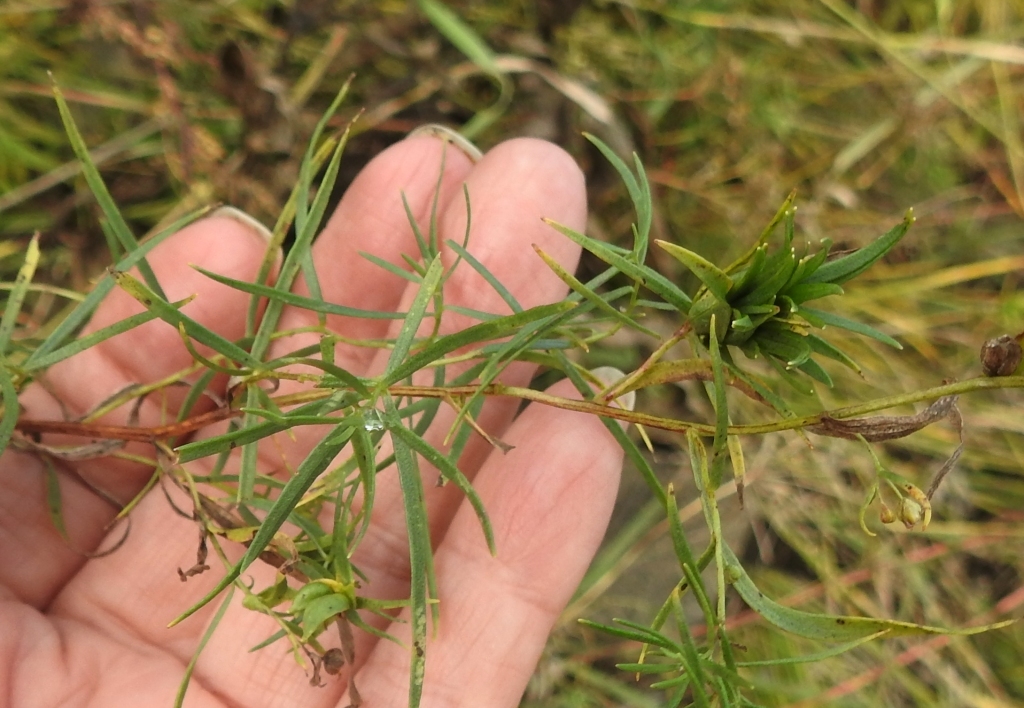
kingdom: Plantae
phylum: Tracheophyta
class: Magnoliopsida
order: Asterales
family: Asteraceae
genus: Artemisia
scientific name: Artemisia dracunculus
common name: Tarragon
